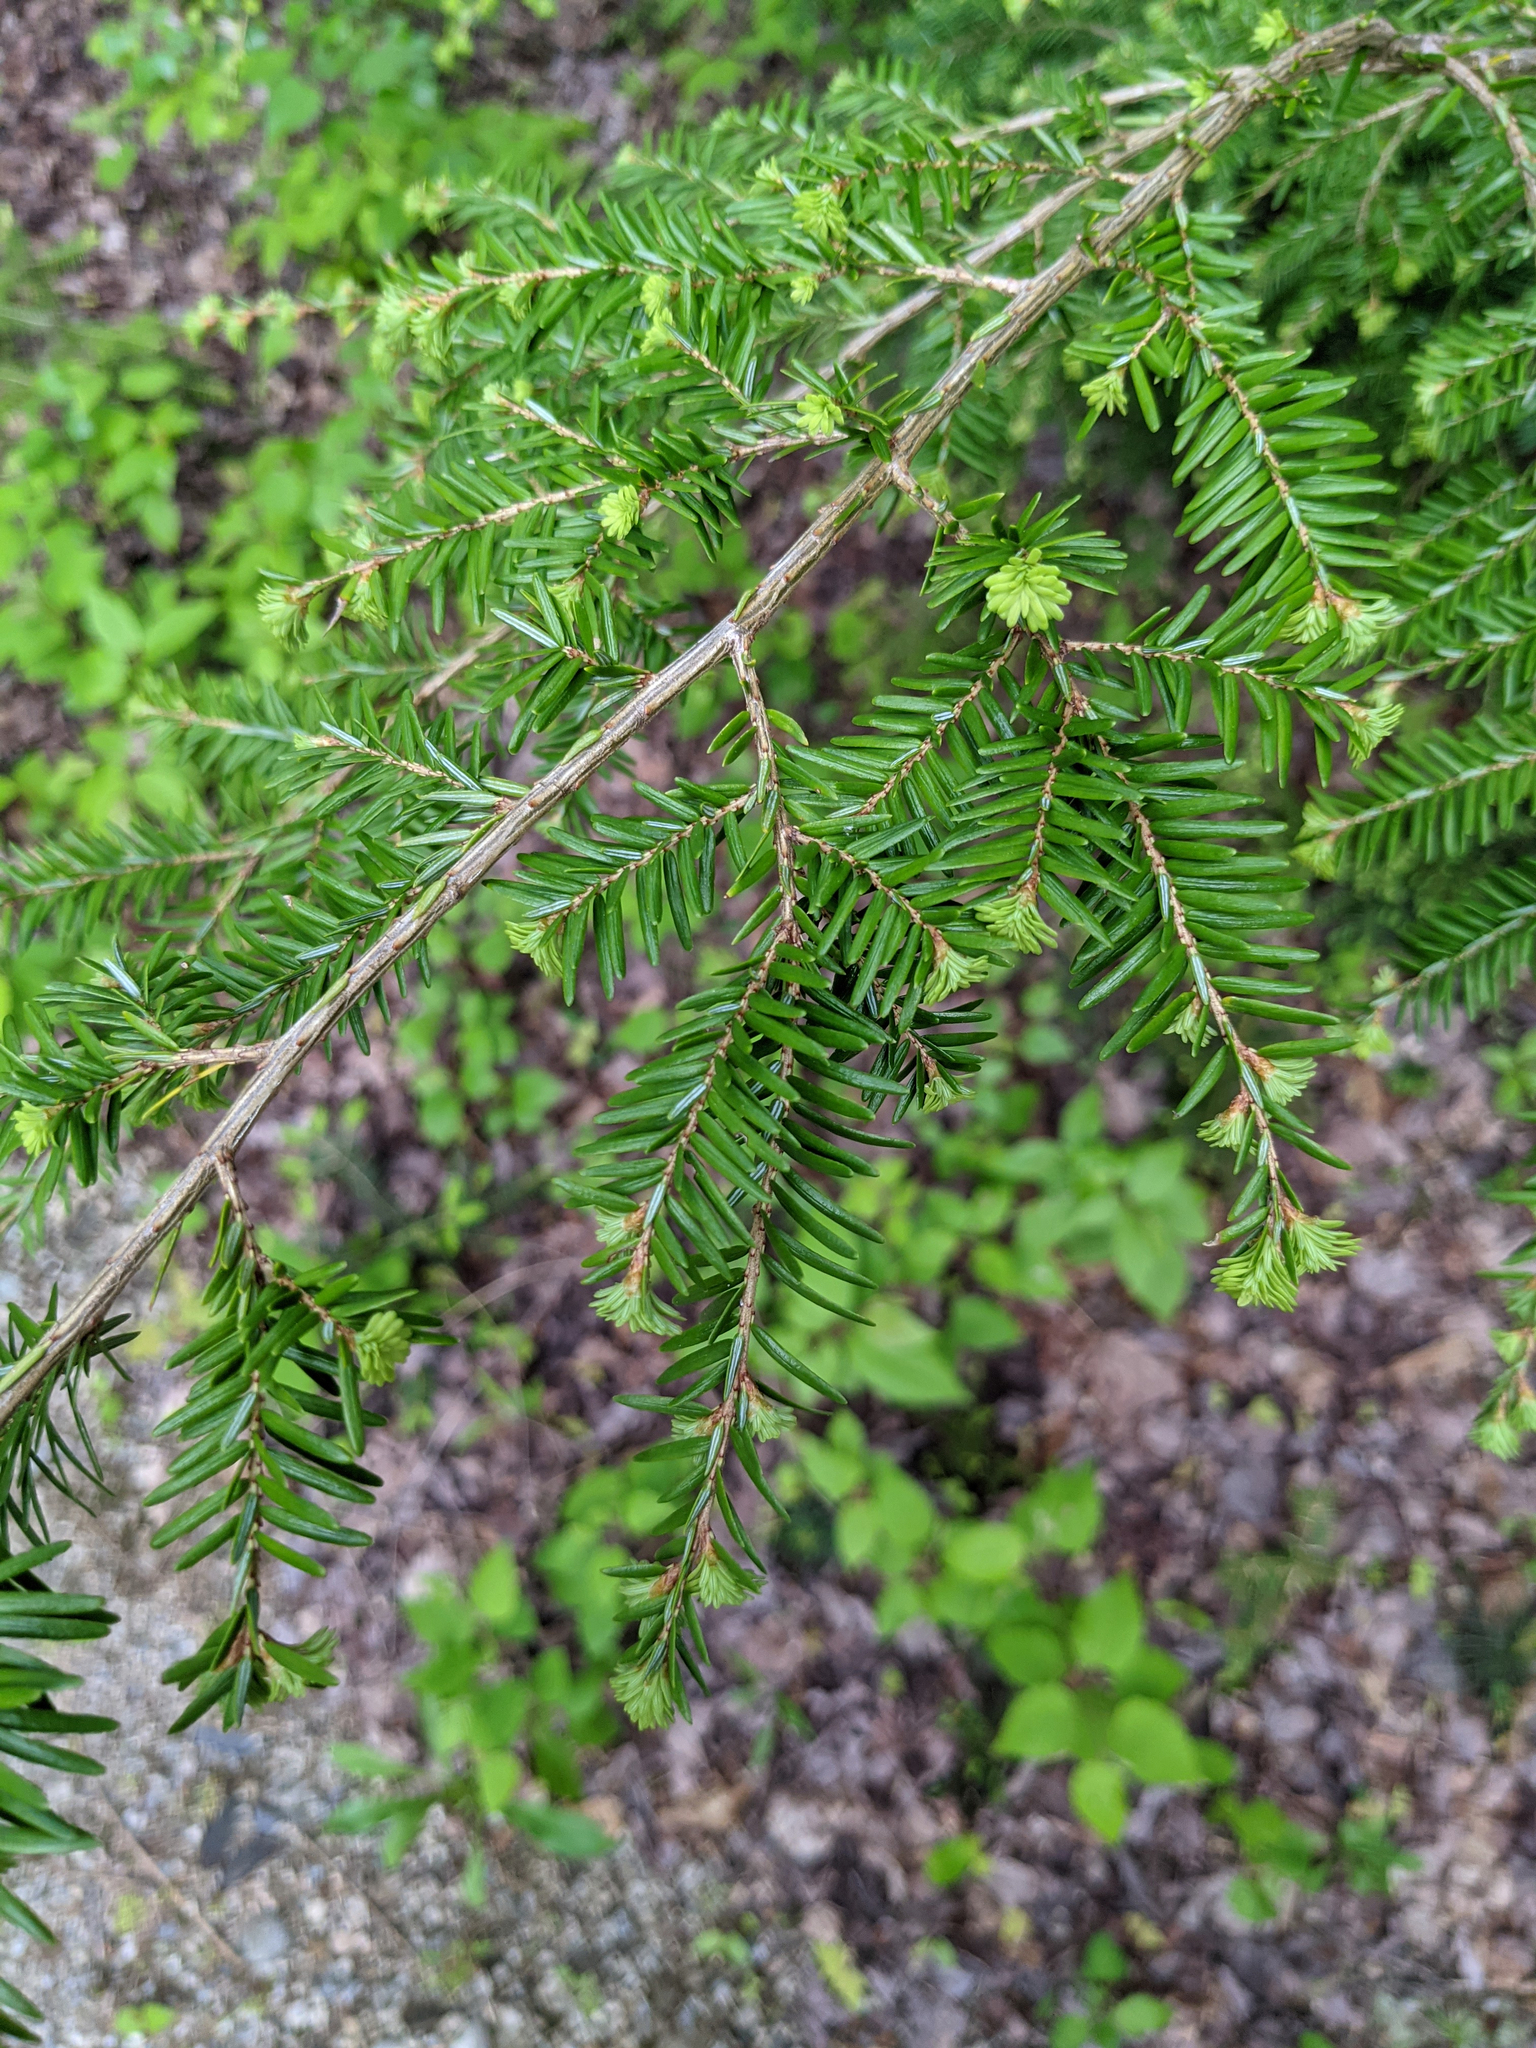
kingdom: Plantae
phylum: Tracheophyta
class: Pinopsida
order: Pinales
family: Pinaceae
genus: Tsuga
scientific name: Tsuga canadensis
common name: Eastern hemlock
